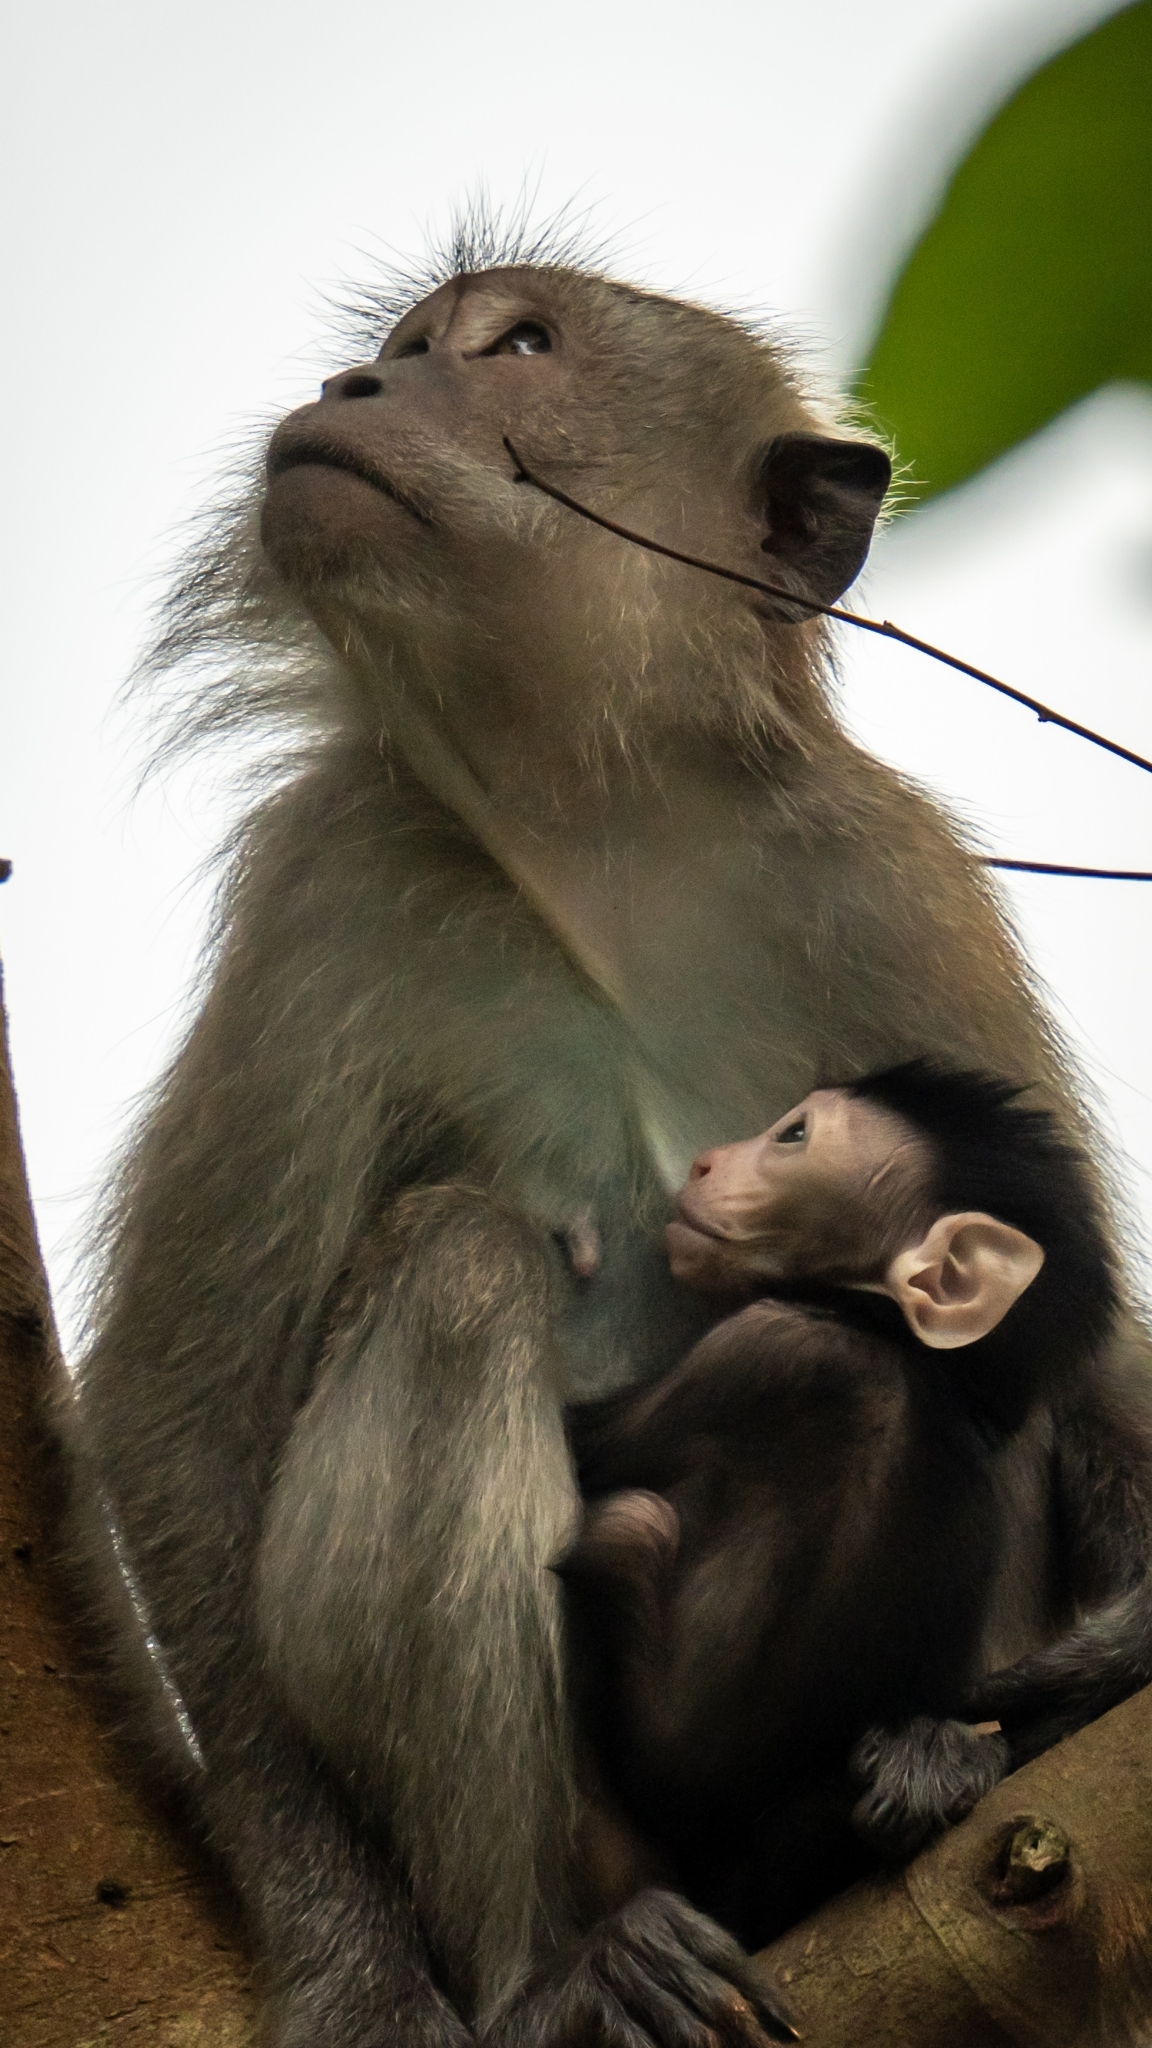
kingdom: Animalia
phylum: Chordata
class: Mammalia
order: Primates
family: Cercopithecidae
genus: Macaca
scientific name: Macaca fascicularis
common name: Crab-eating macaque
